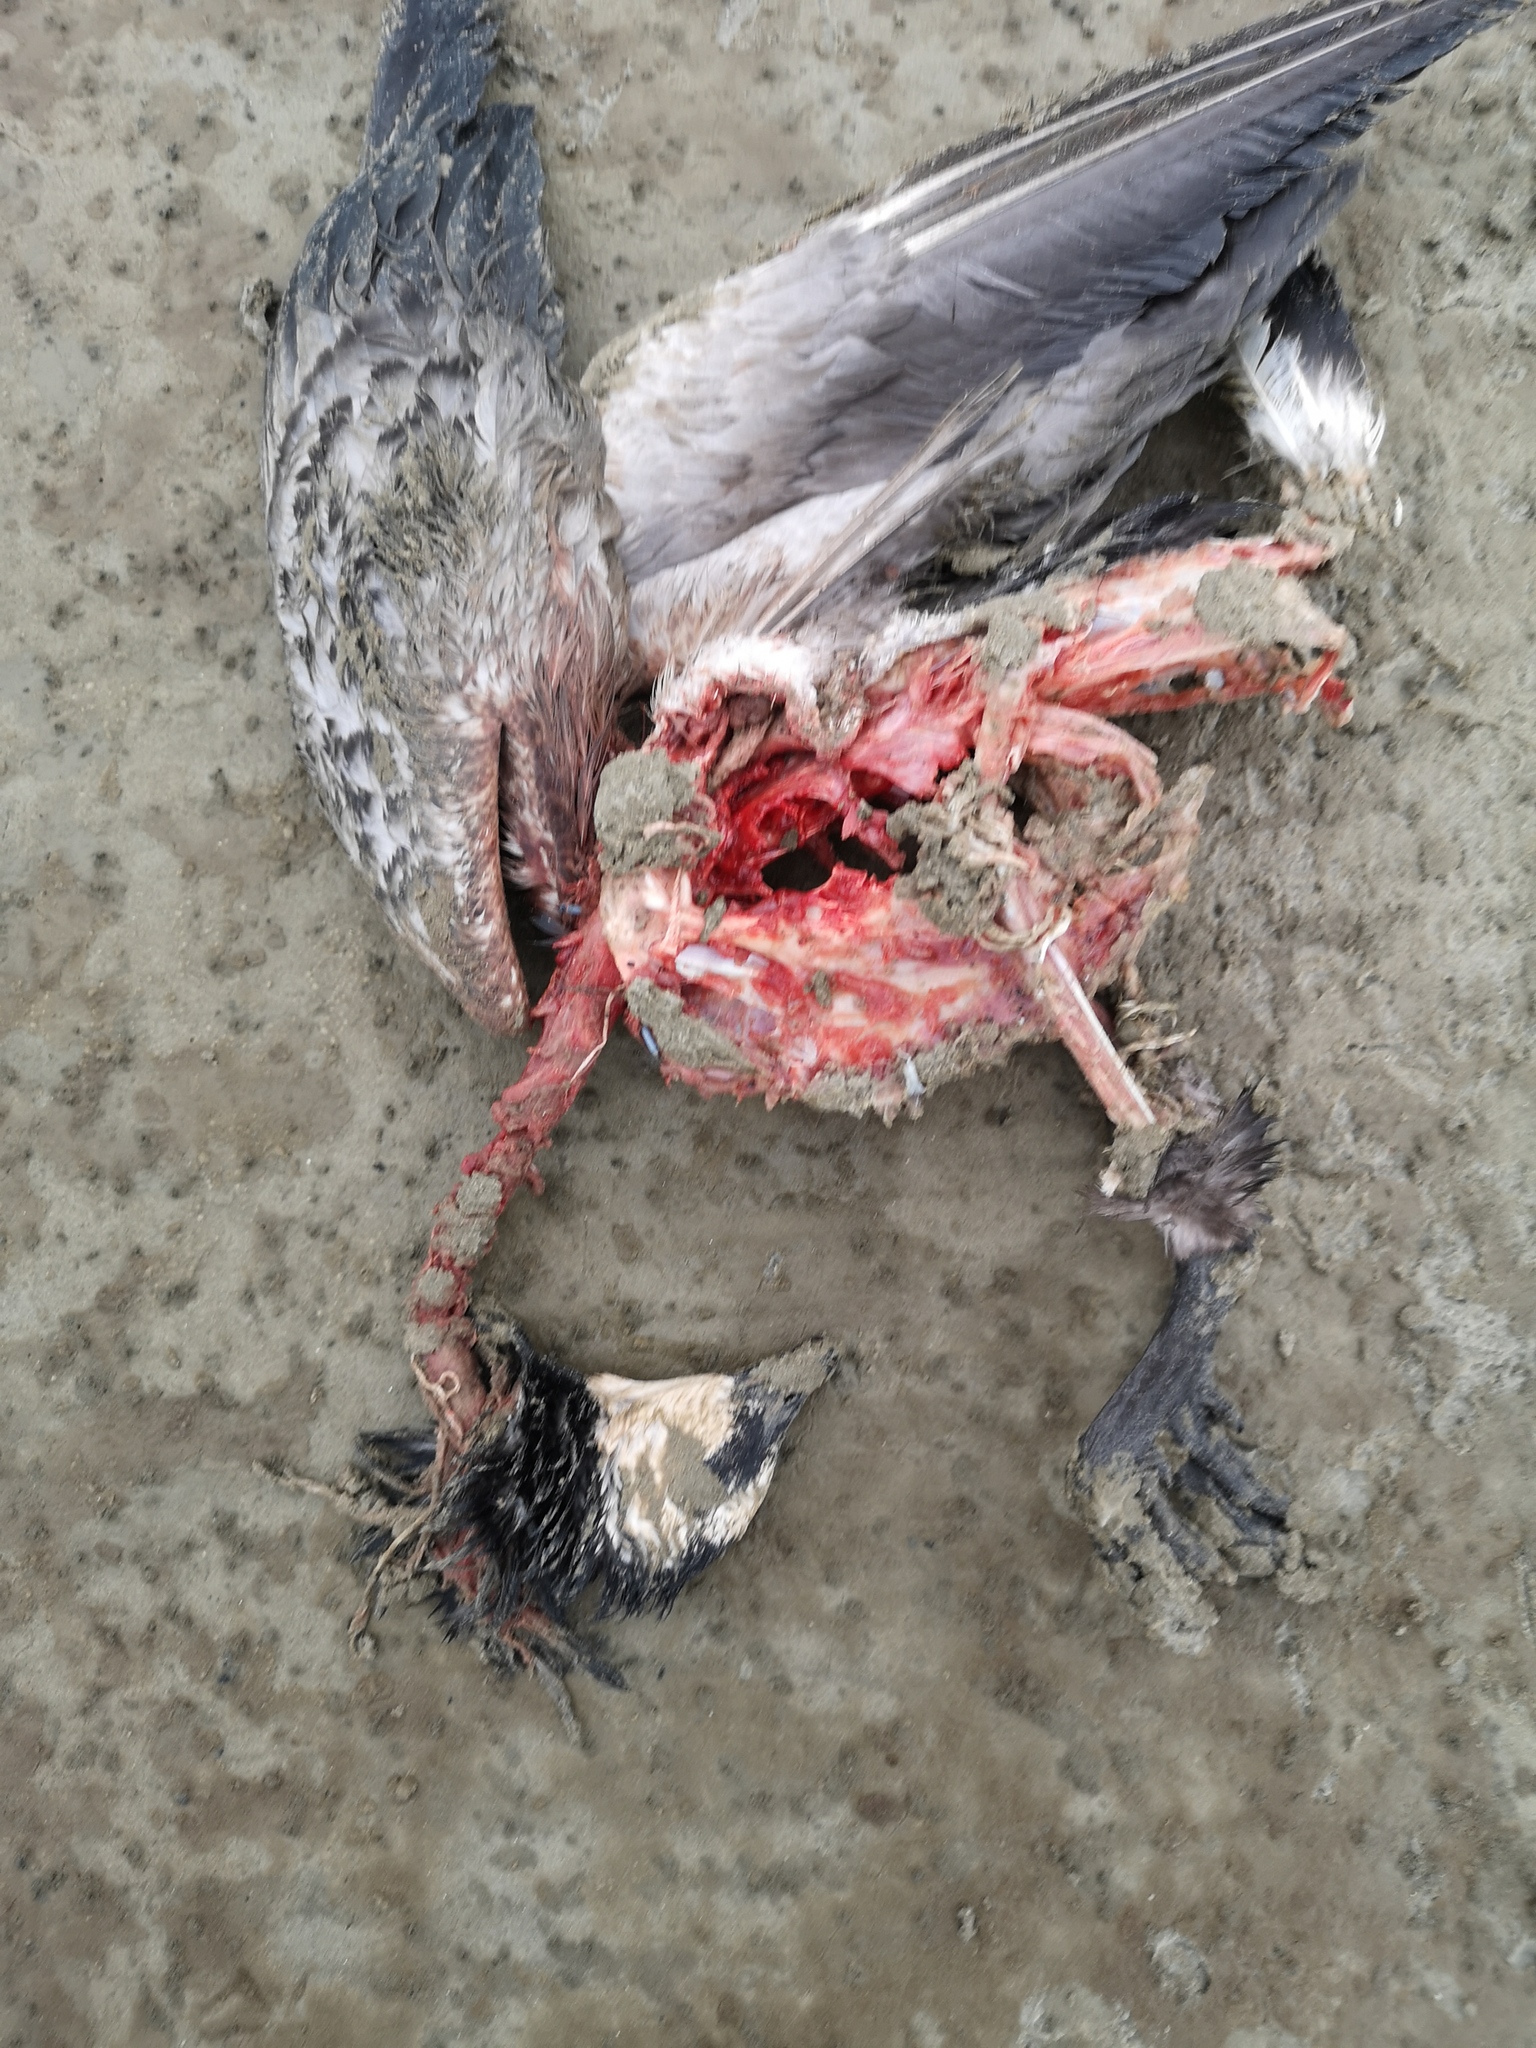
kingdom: Animalia
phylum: Chordata
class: Aves
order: Anseriformes
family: Anatidae
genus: Branta
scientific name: Branta leucopsis
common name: Barnacle goose
